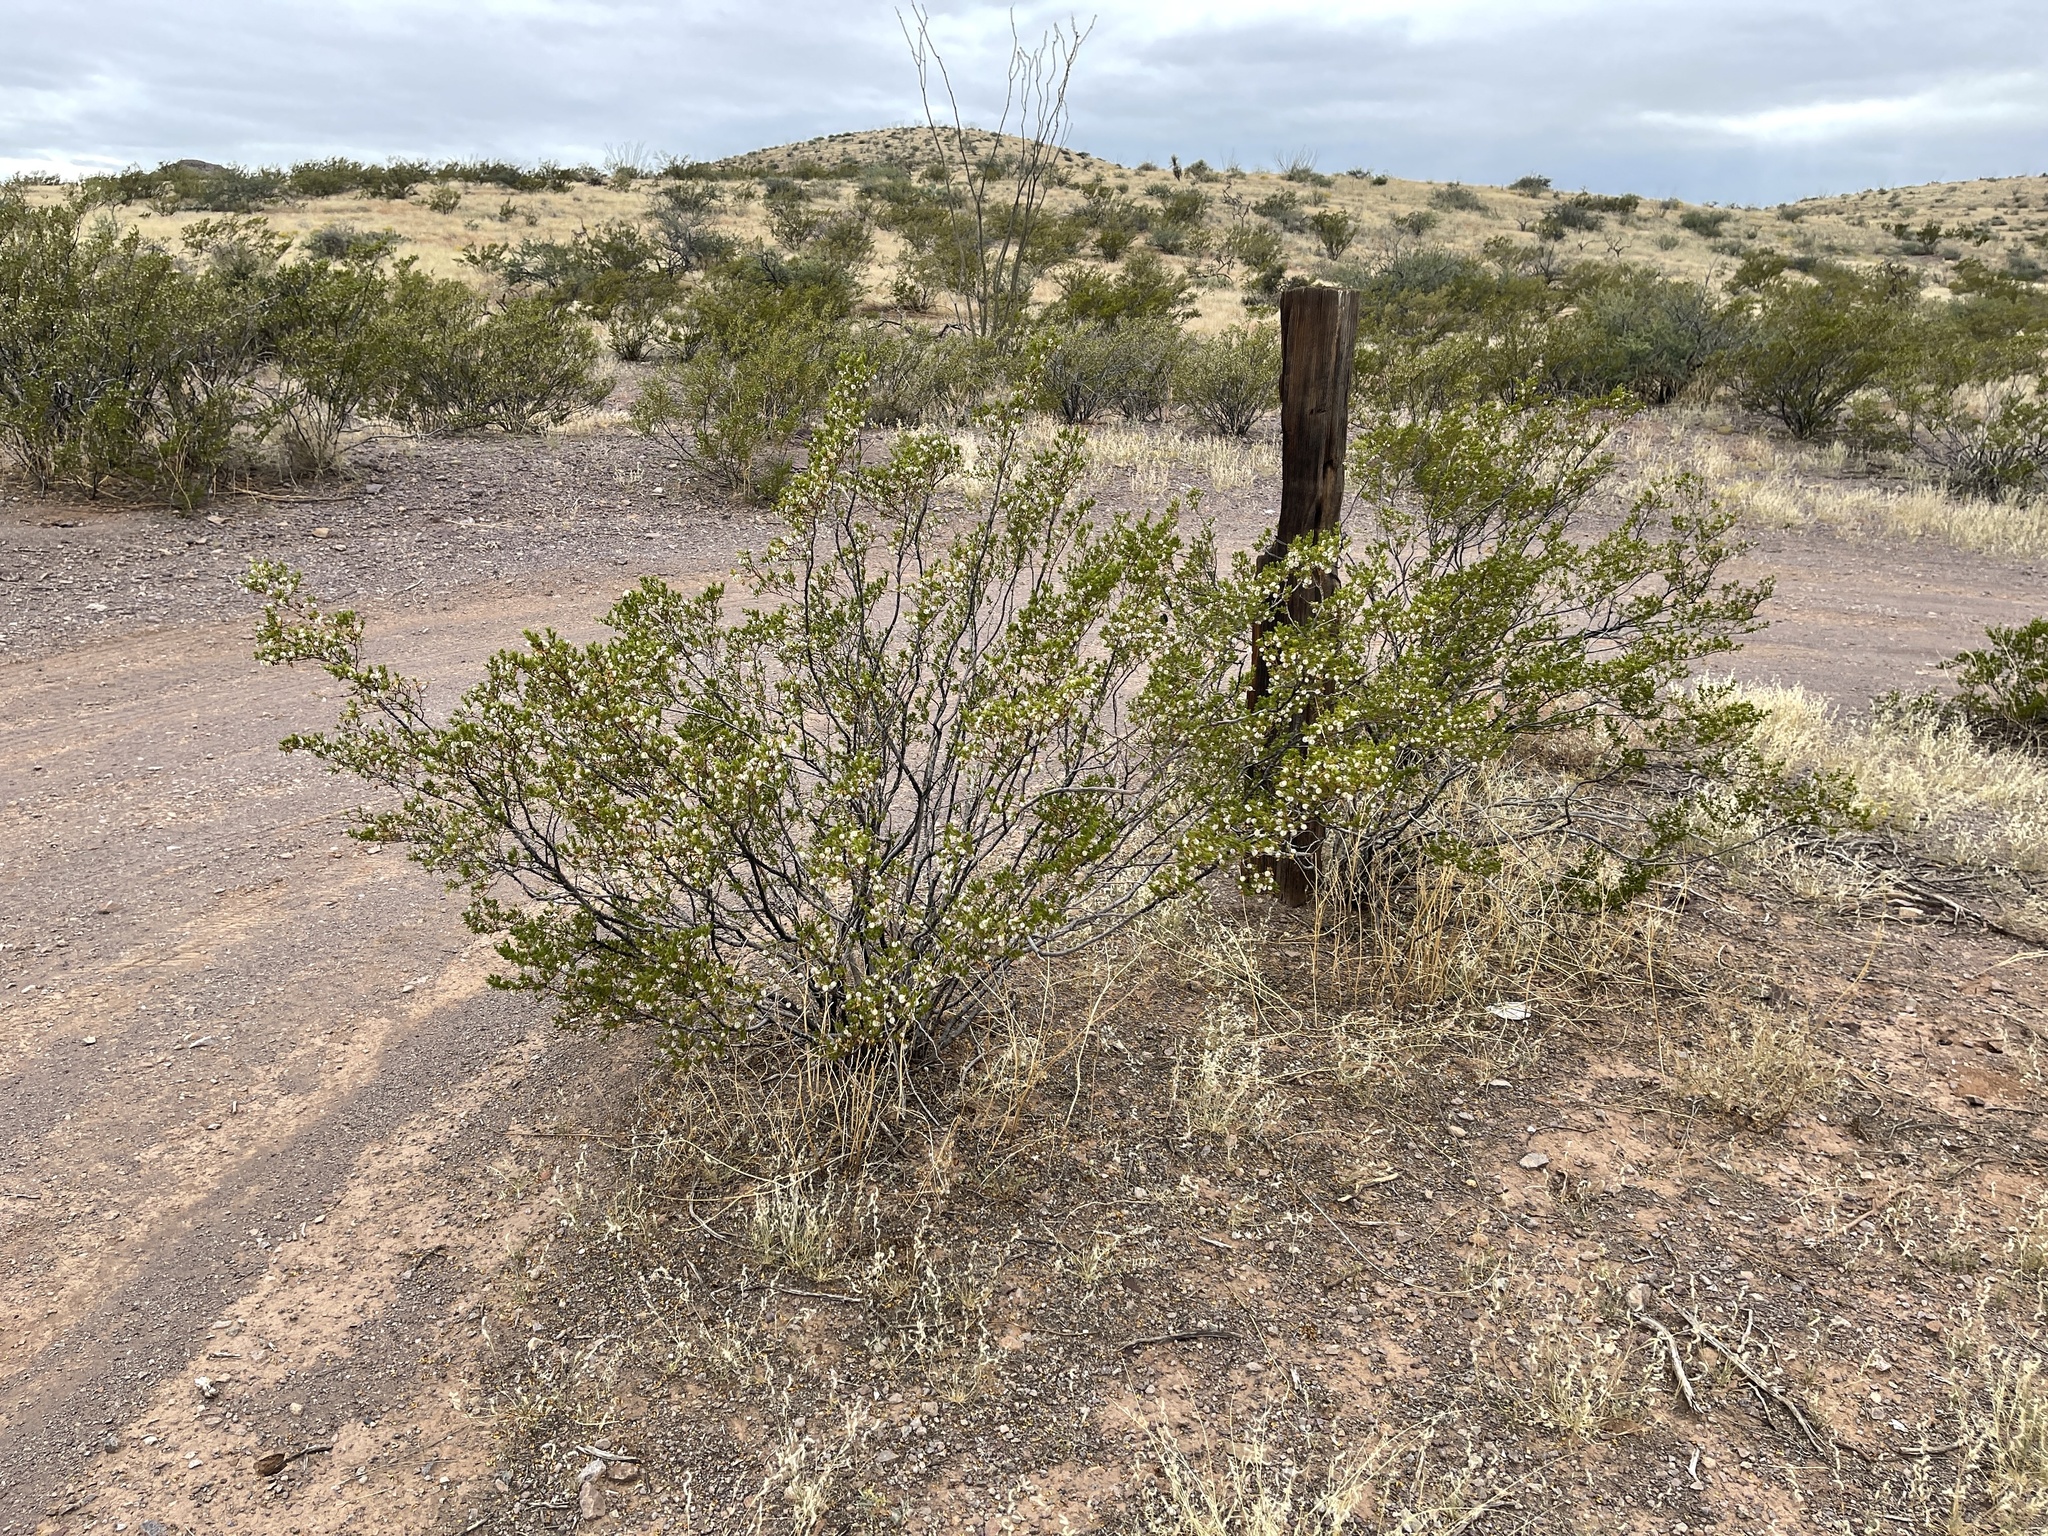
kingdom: Plantae
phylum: Tracheophyta
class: Magnoliopsida
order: Zygophyllales
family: Zygophyllaceae
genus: Larrea
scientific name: Larrea tridentata
